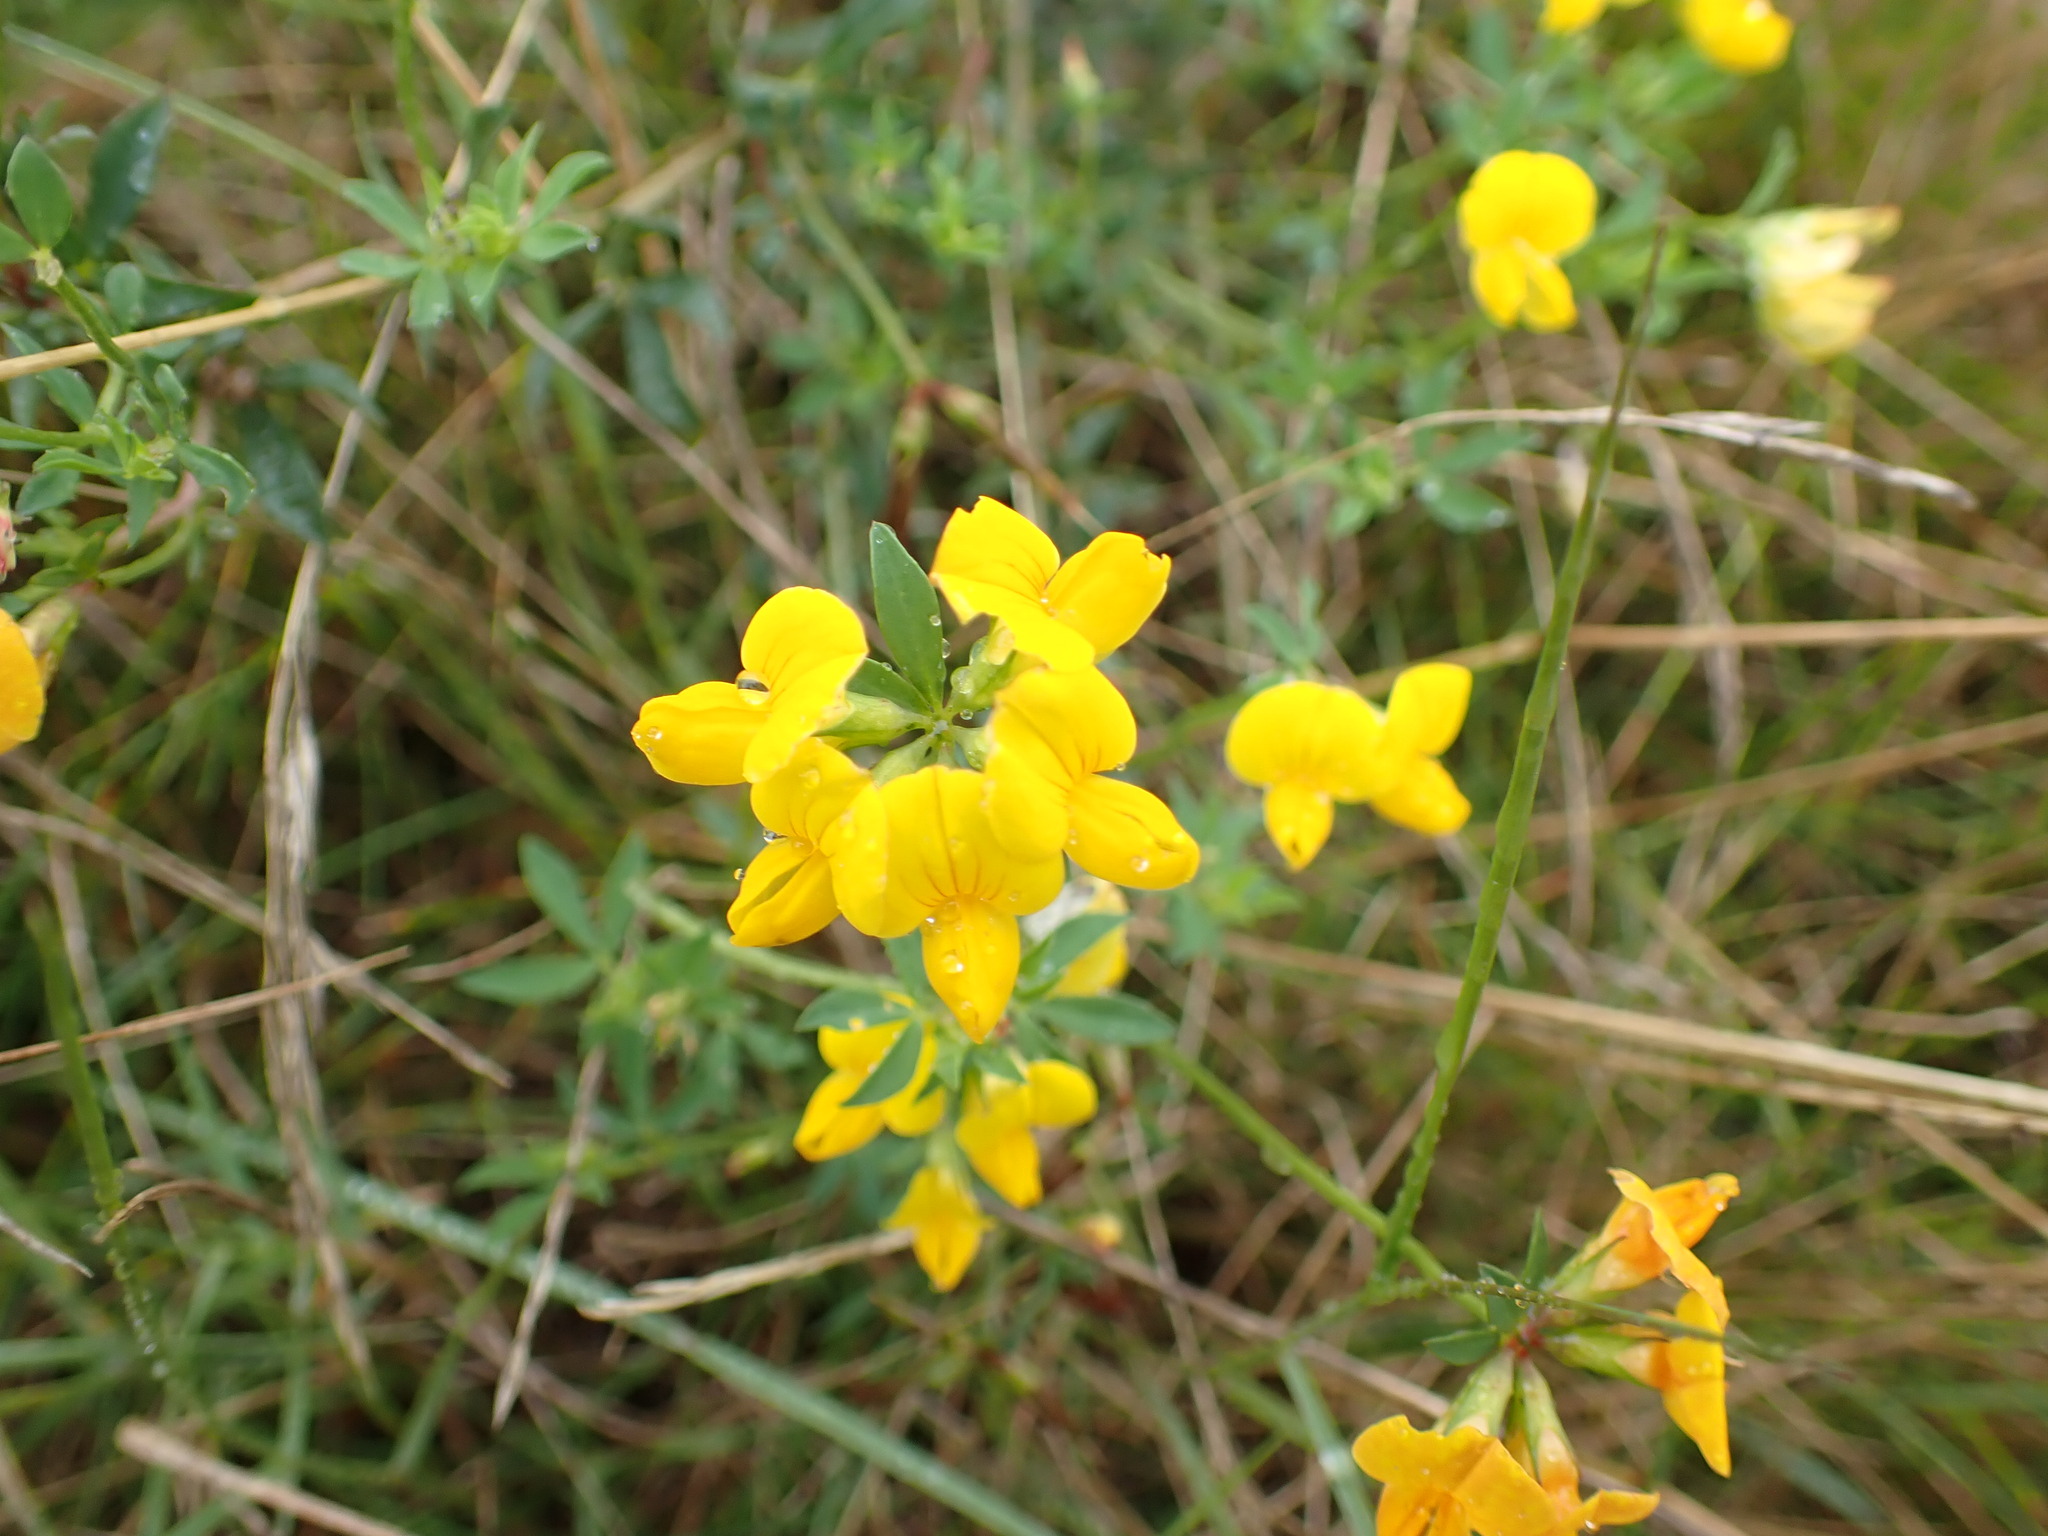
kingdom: Plantae
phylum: Tracheophyta
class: Magnoliopsida
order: Fabales
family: Fabaceae
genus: Lotus
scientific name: Lotus corniculatus
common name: Common bird's-foot-trefoil
